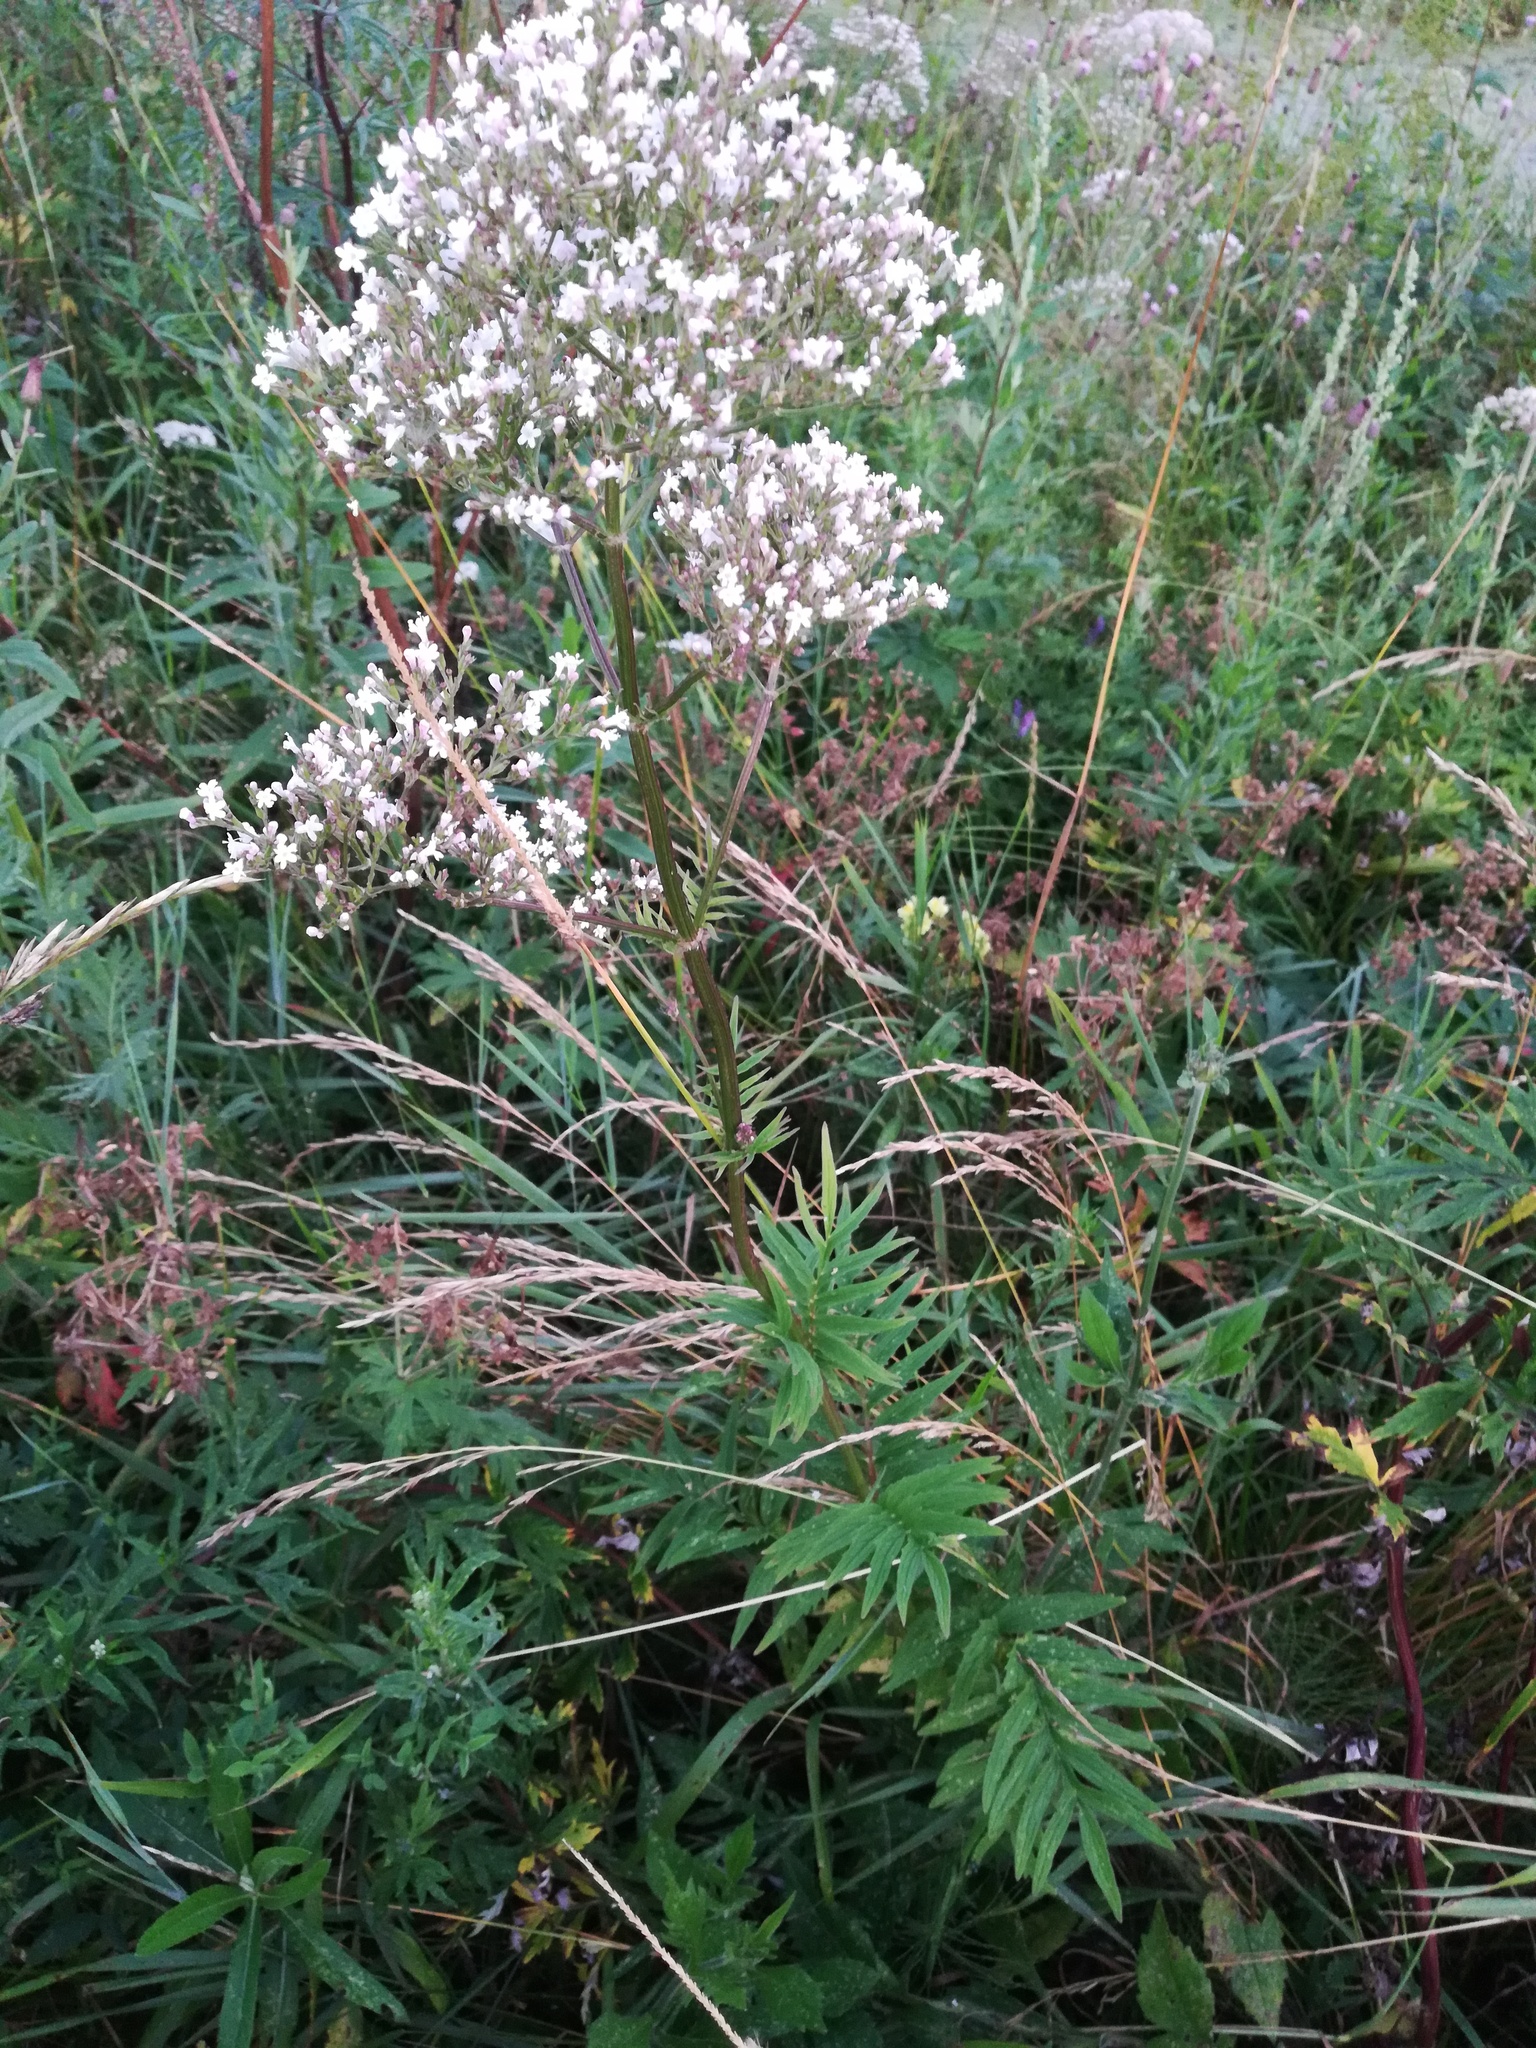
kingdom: Plantae
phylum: Tracheophyta
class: Magnoliopsida
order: Dipsacales
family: Caprifoliaceae
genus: Valeriana
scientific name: Valeriana officinalis
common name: Common valerian
